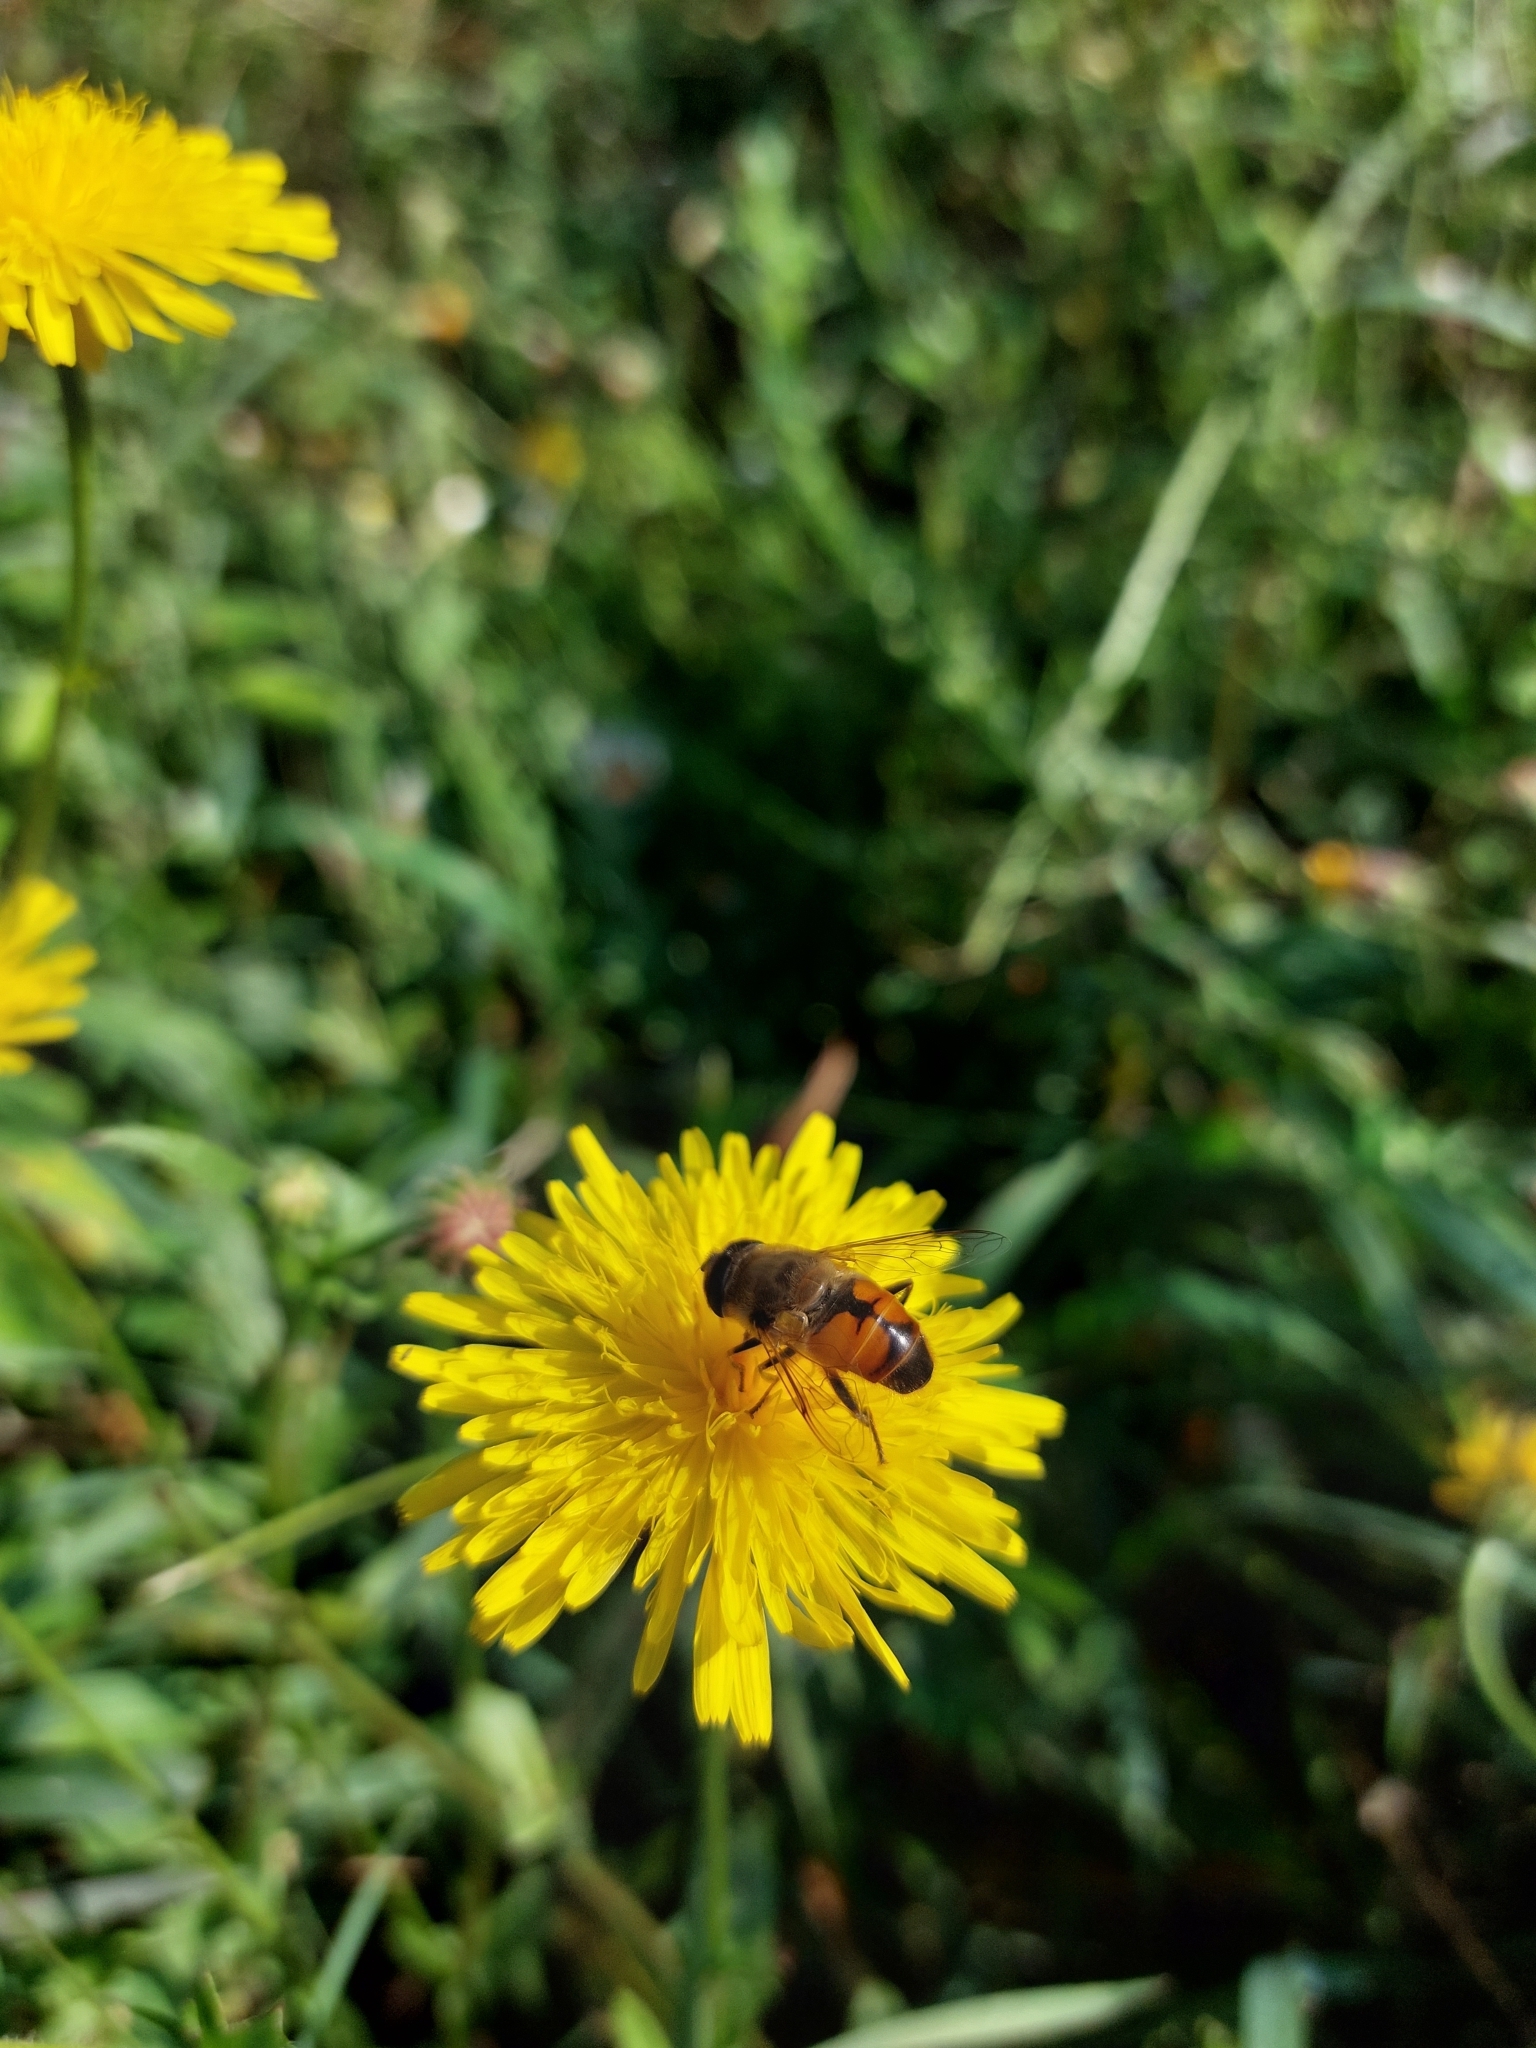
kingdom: Animalia
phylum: Arthropoda
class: Insecta
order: Diptera
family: Syrphidae
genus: Eristalis
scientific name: Eristalis tenax
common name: Drone fly
